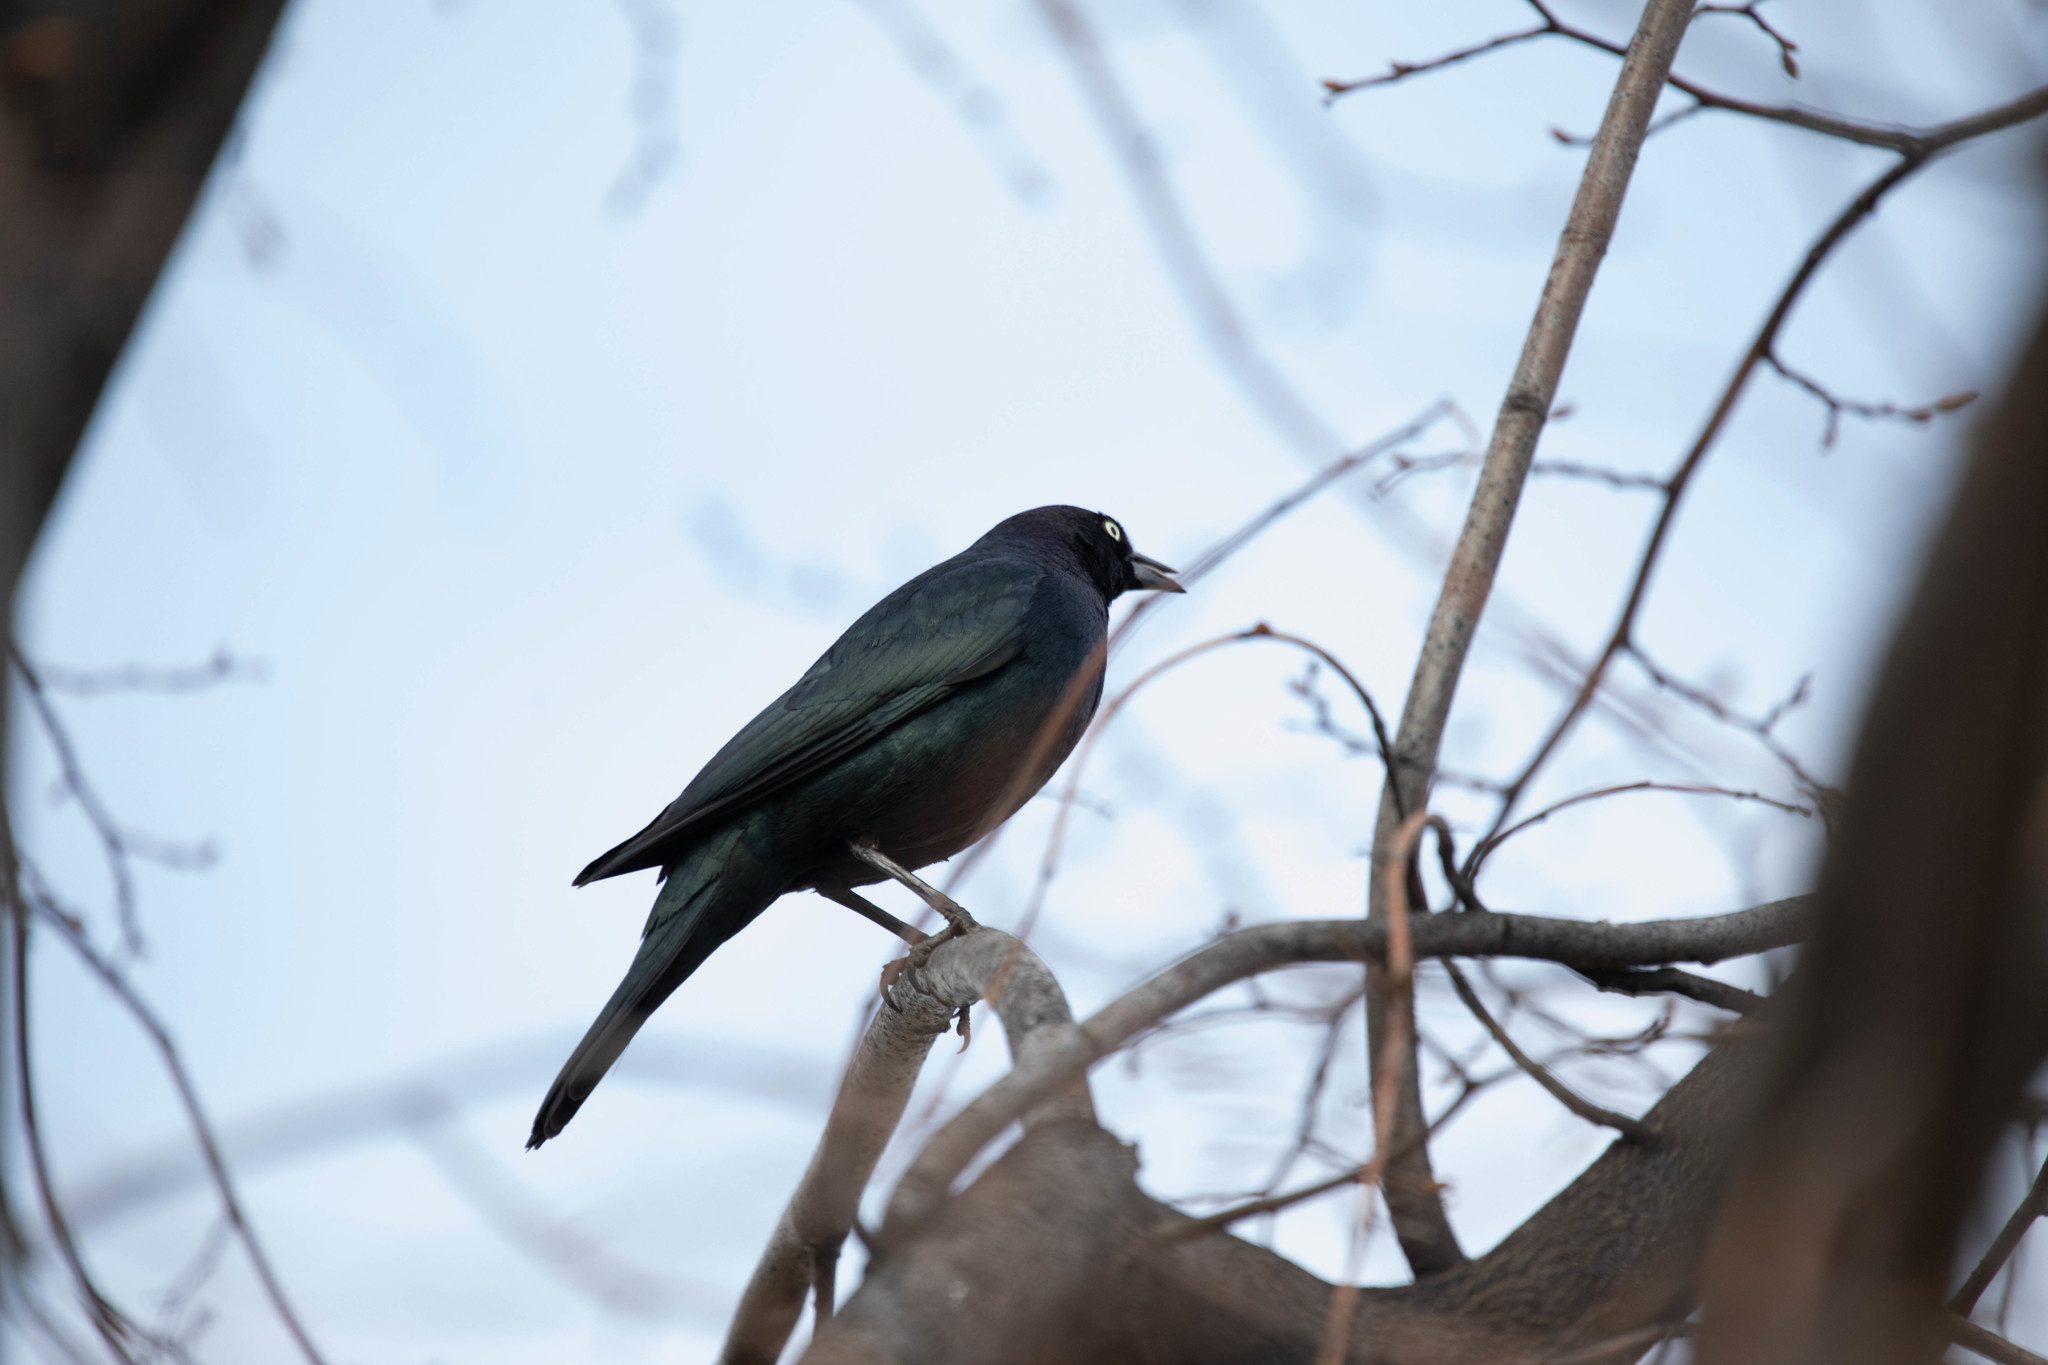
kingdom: Animalia
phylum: Chordata
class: Aves
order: Passeriformes
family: Icteridae
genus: Euphagus
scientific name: Euphagus cyanocephalus
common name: Brewer's blackbird
